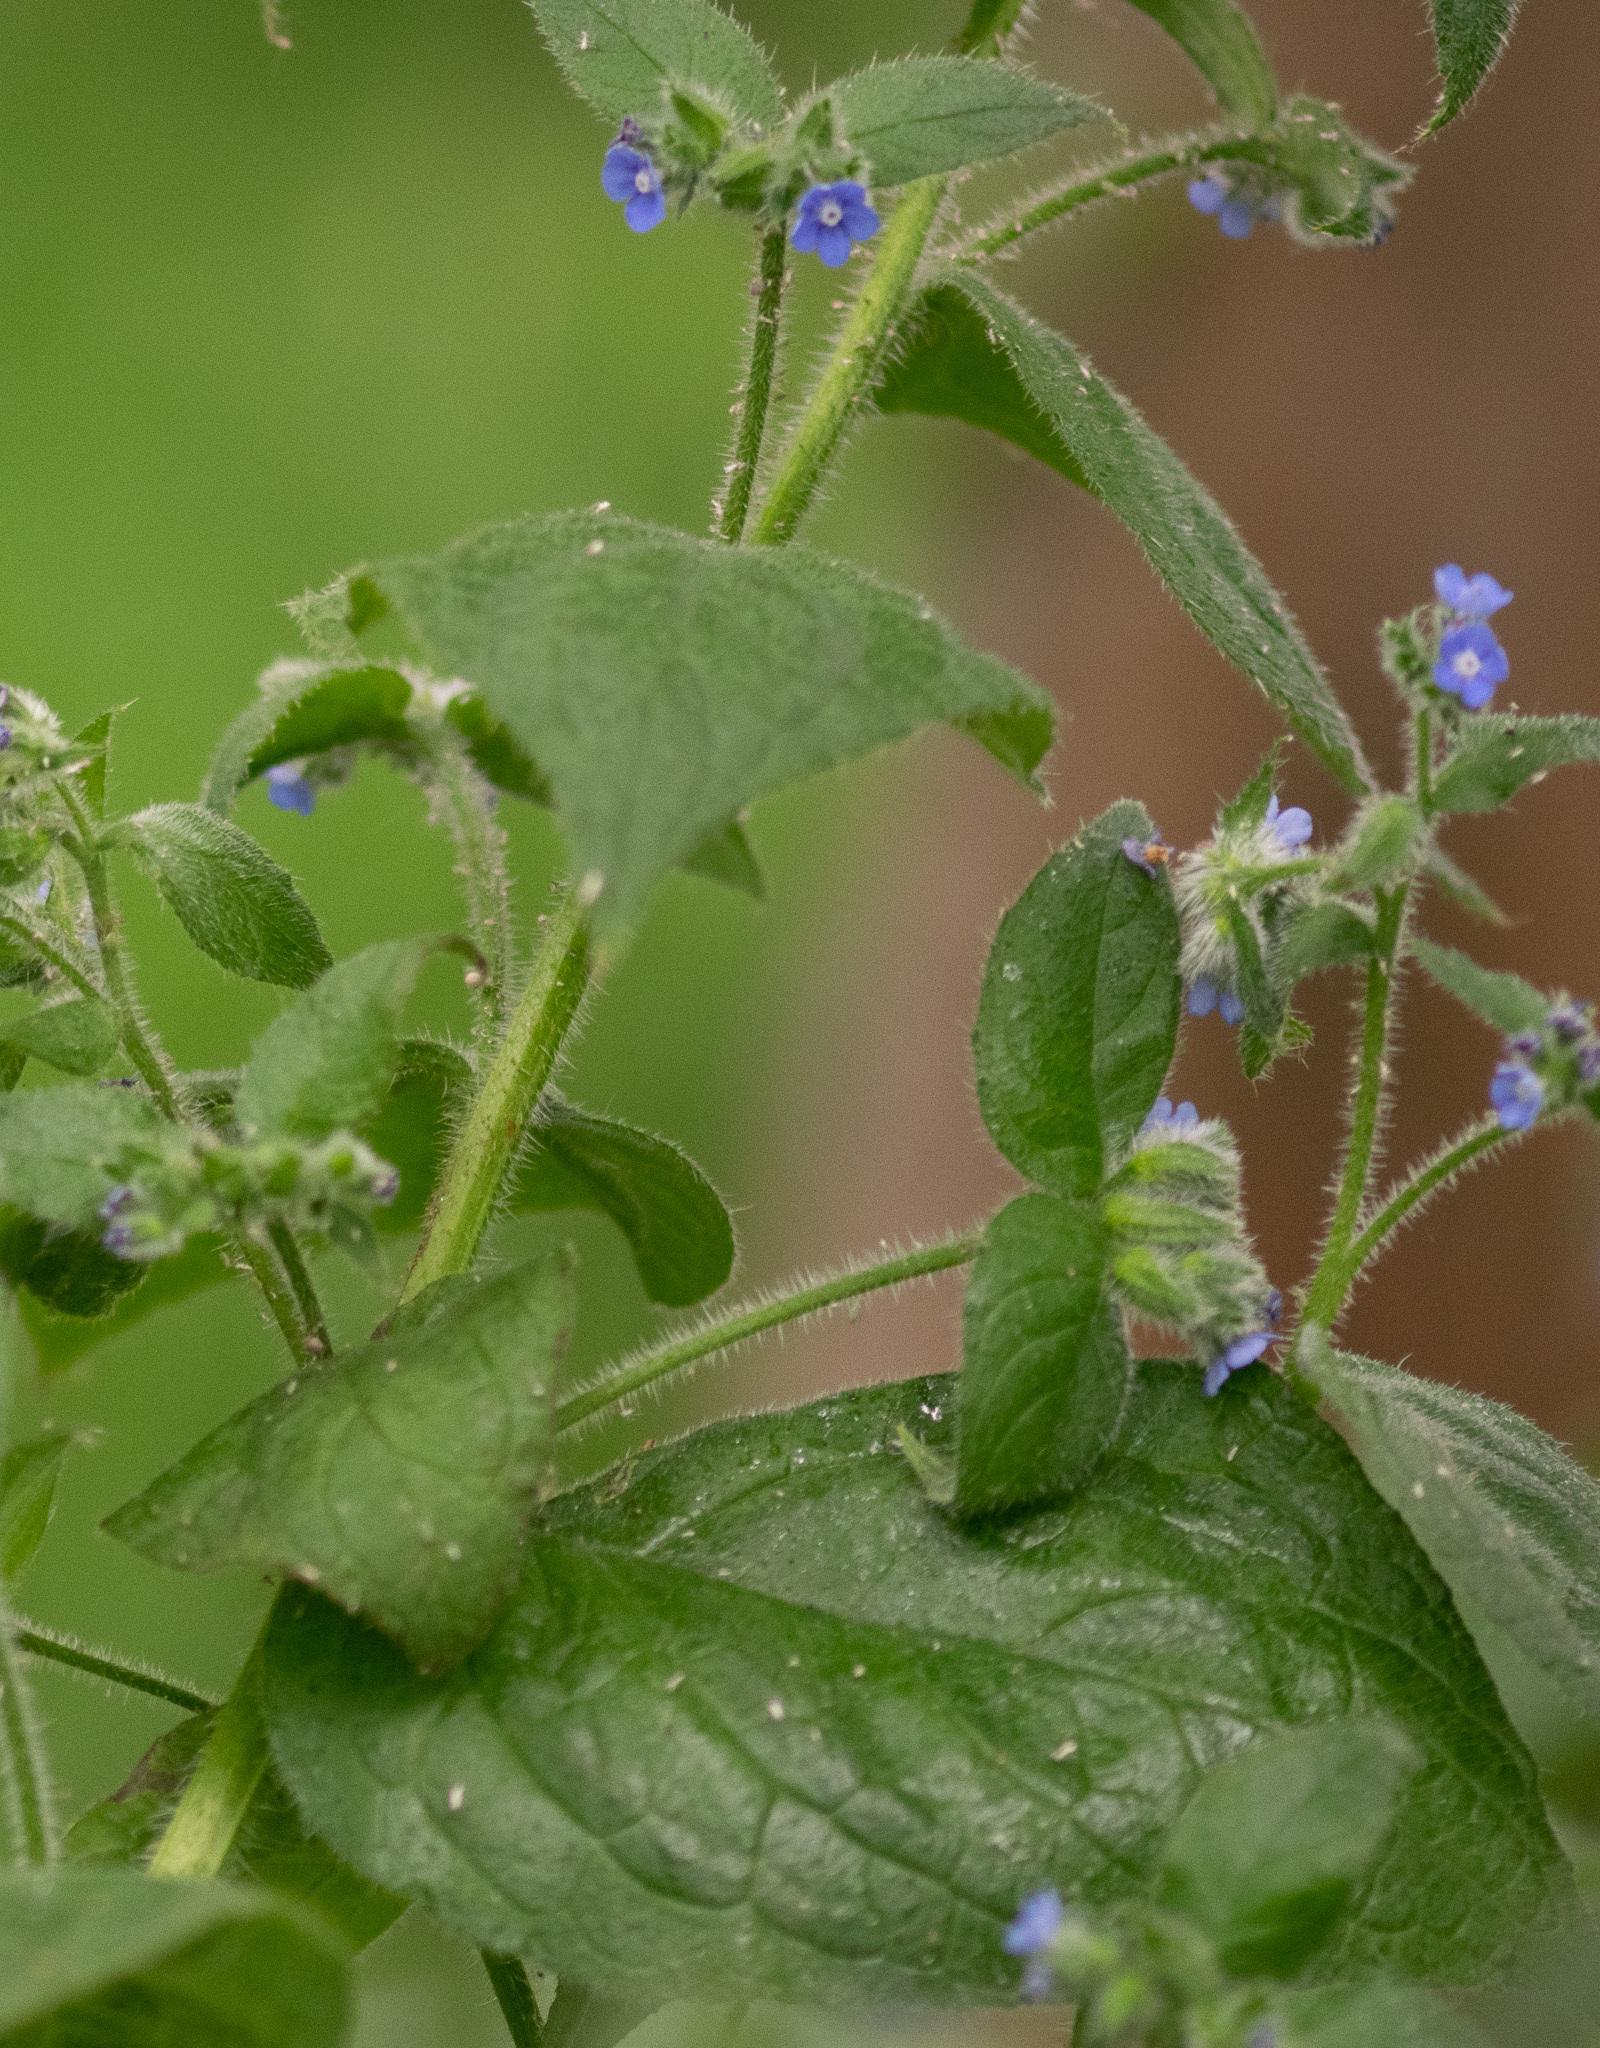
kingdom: Plantae
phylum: Tracheophyta
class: Magnoliopsida
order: Boraginales
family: Boraginaceae
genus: Pentaglottis
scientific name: Pentaglottis sempervirens
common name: Green alkanet
